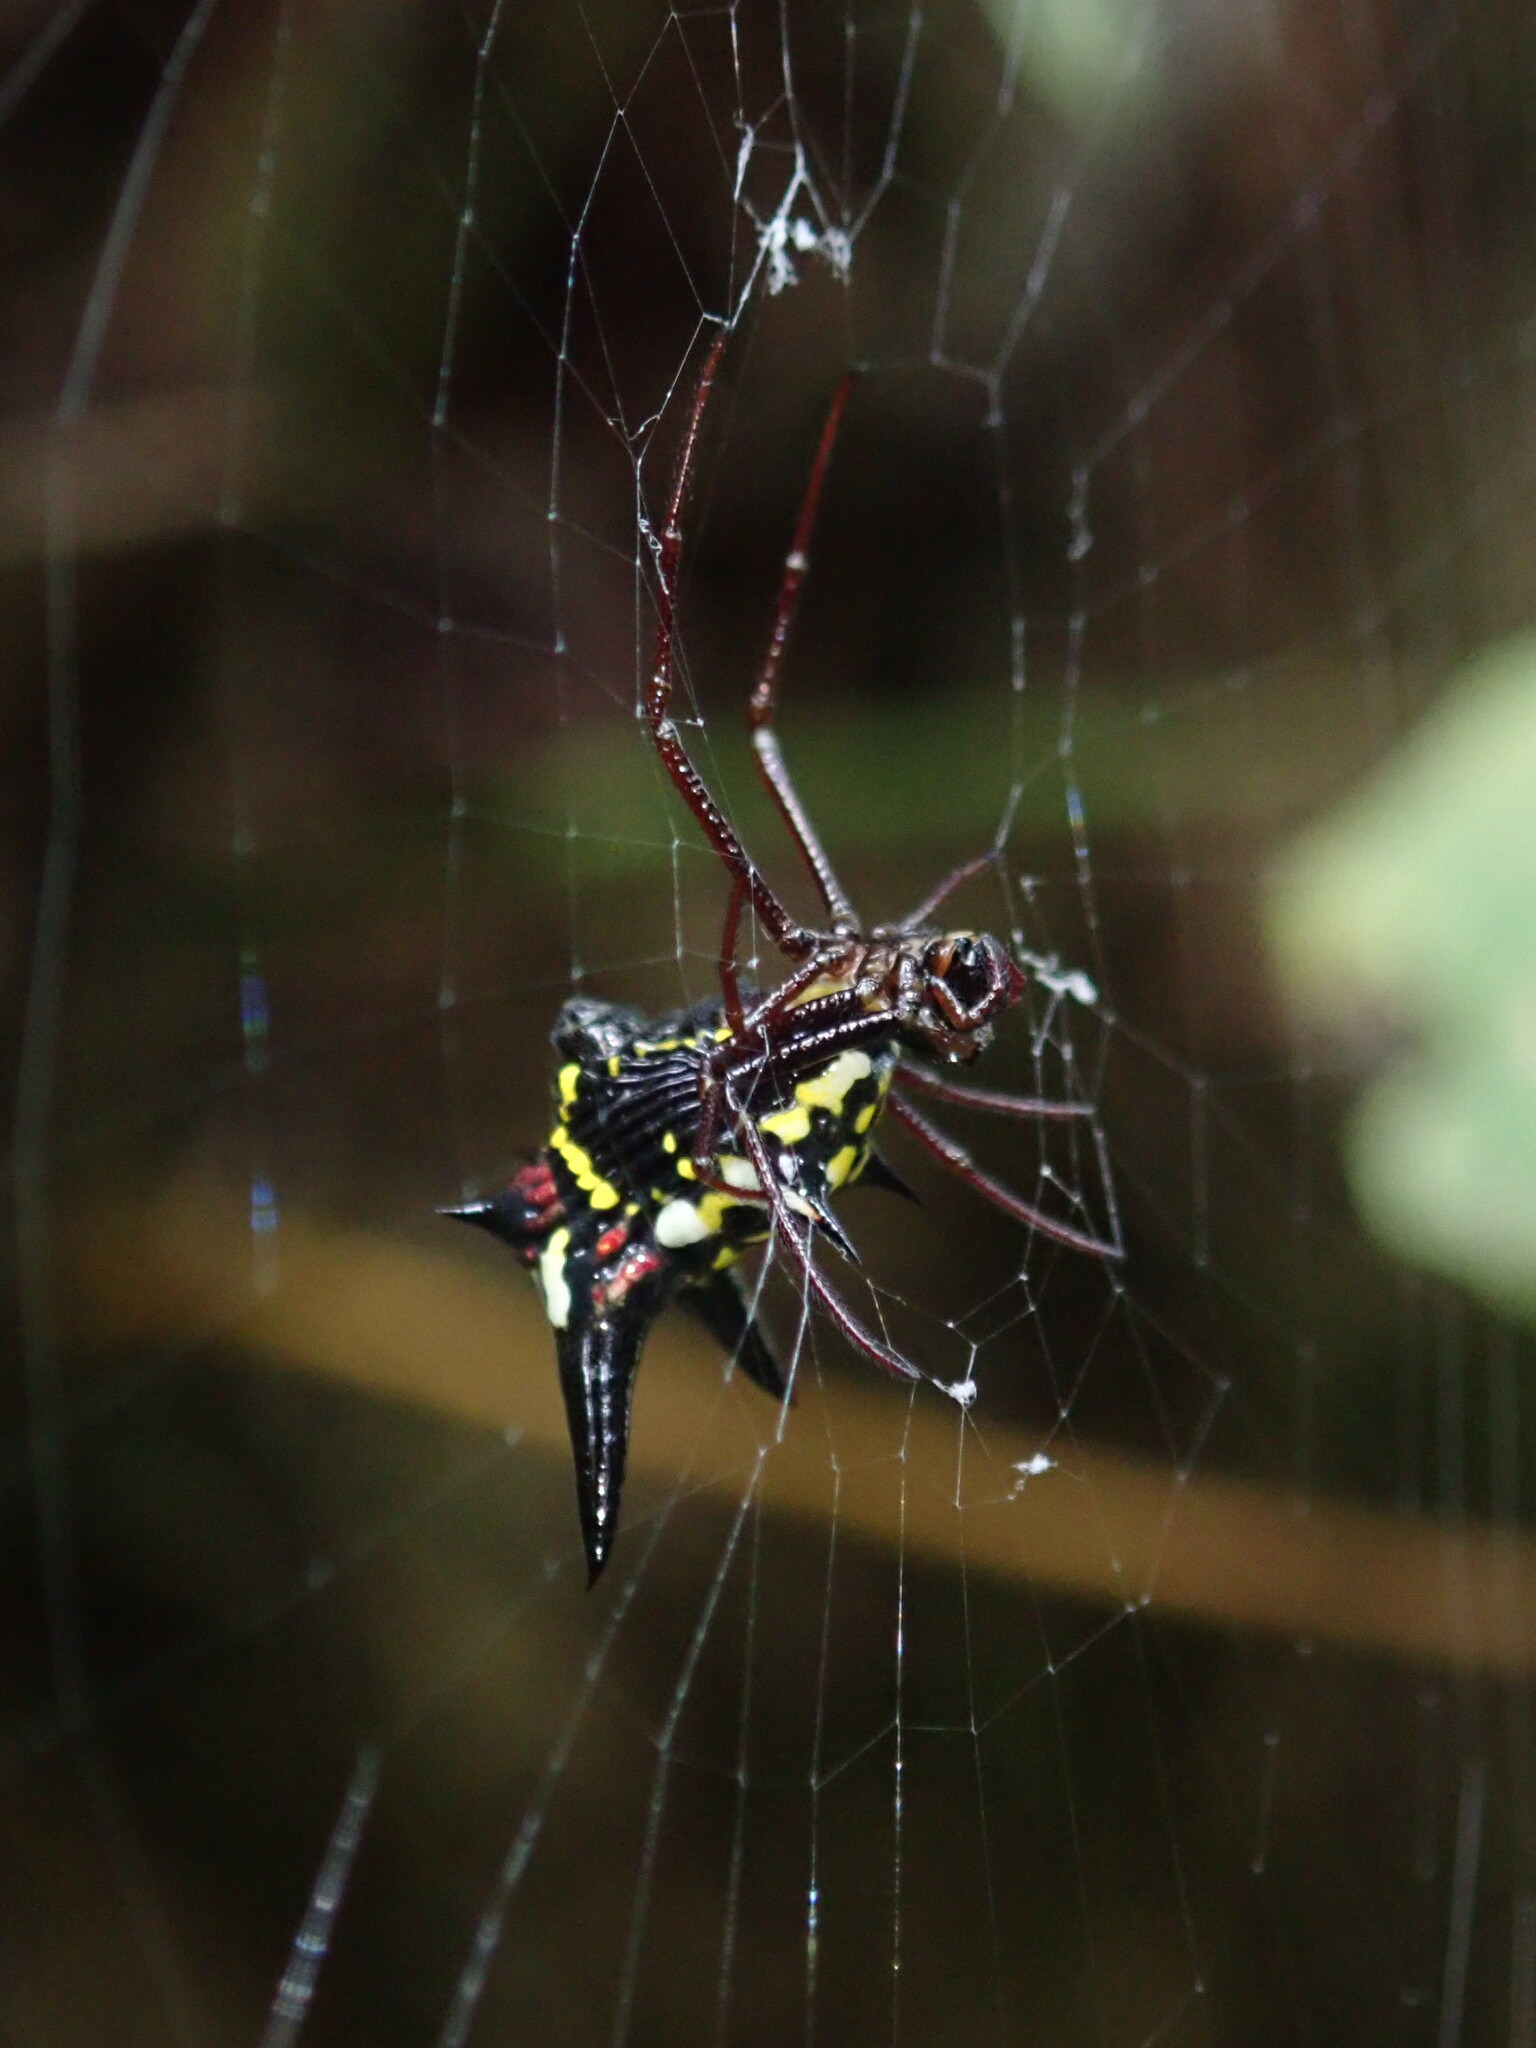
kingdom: Animalia
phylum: Arthropoda
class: Arachnida
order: Araneae
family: Araneidae
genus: Micrathena
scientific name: Micrathena raimondi
